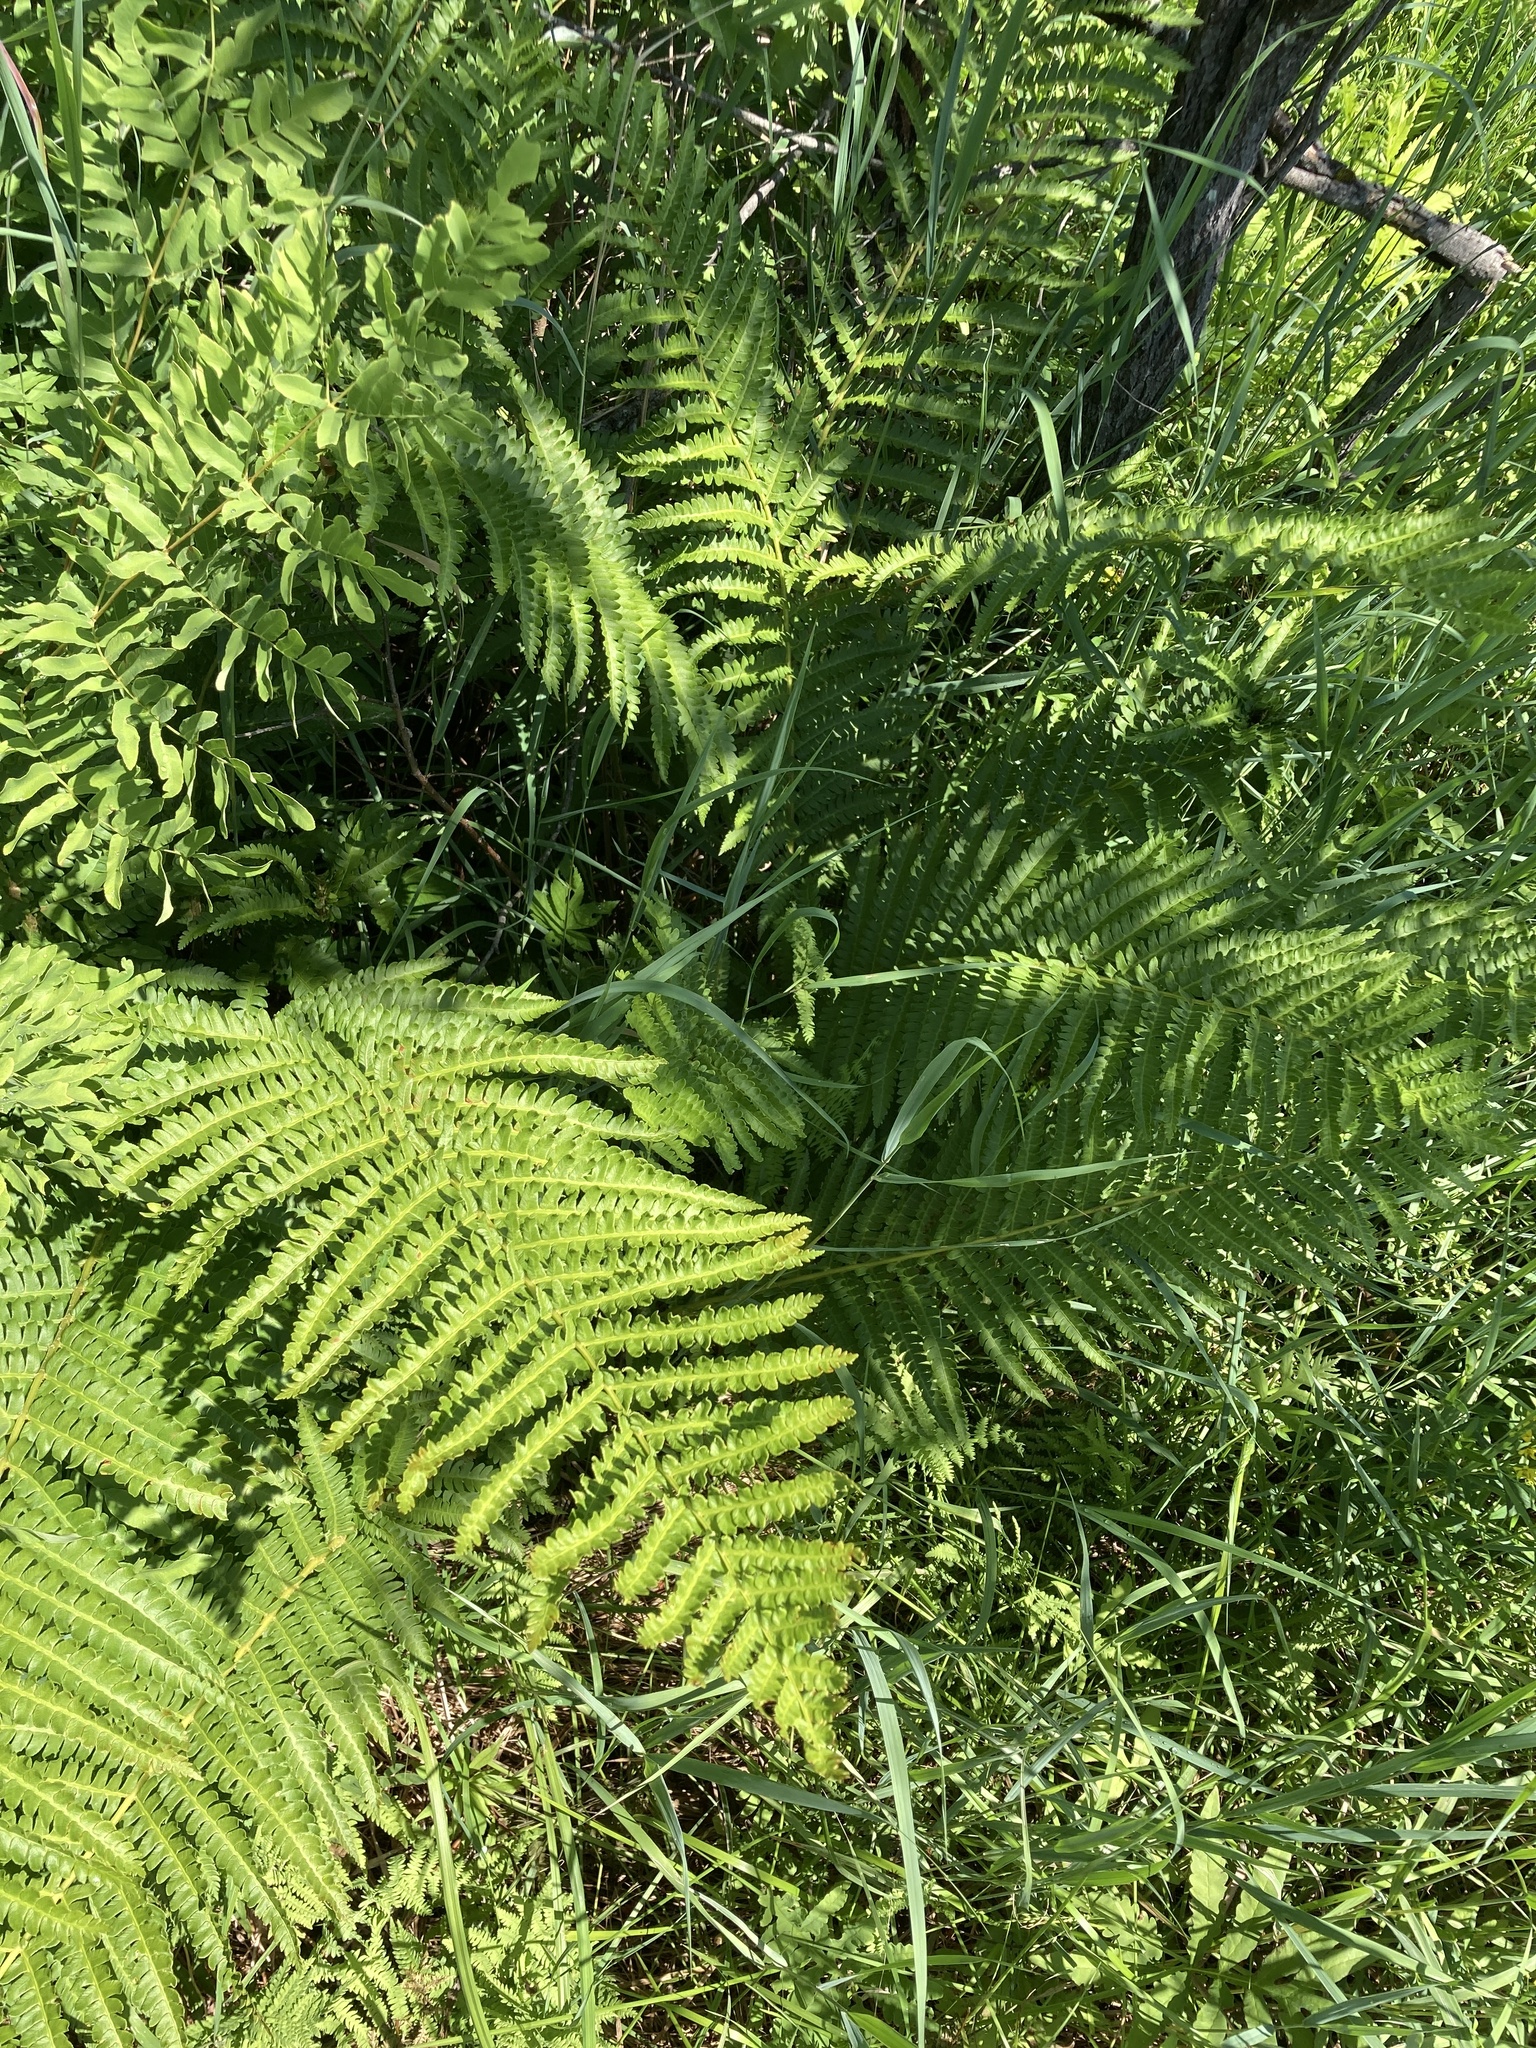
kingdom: Plantae
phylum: Tracheophyta
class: Polypodiopsida
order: Osmundales
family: Osmundaceae
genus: Osmundastrum
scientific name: Osmundastrum cinnamomeum
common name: Cinnamon fern
